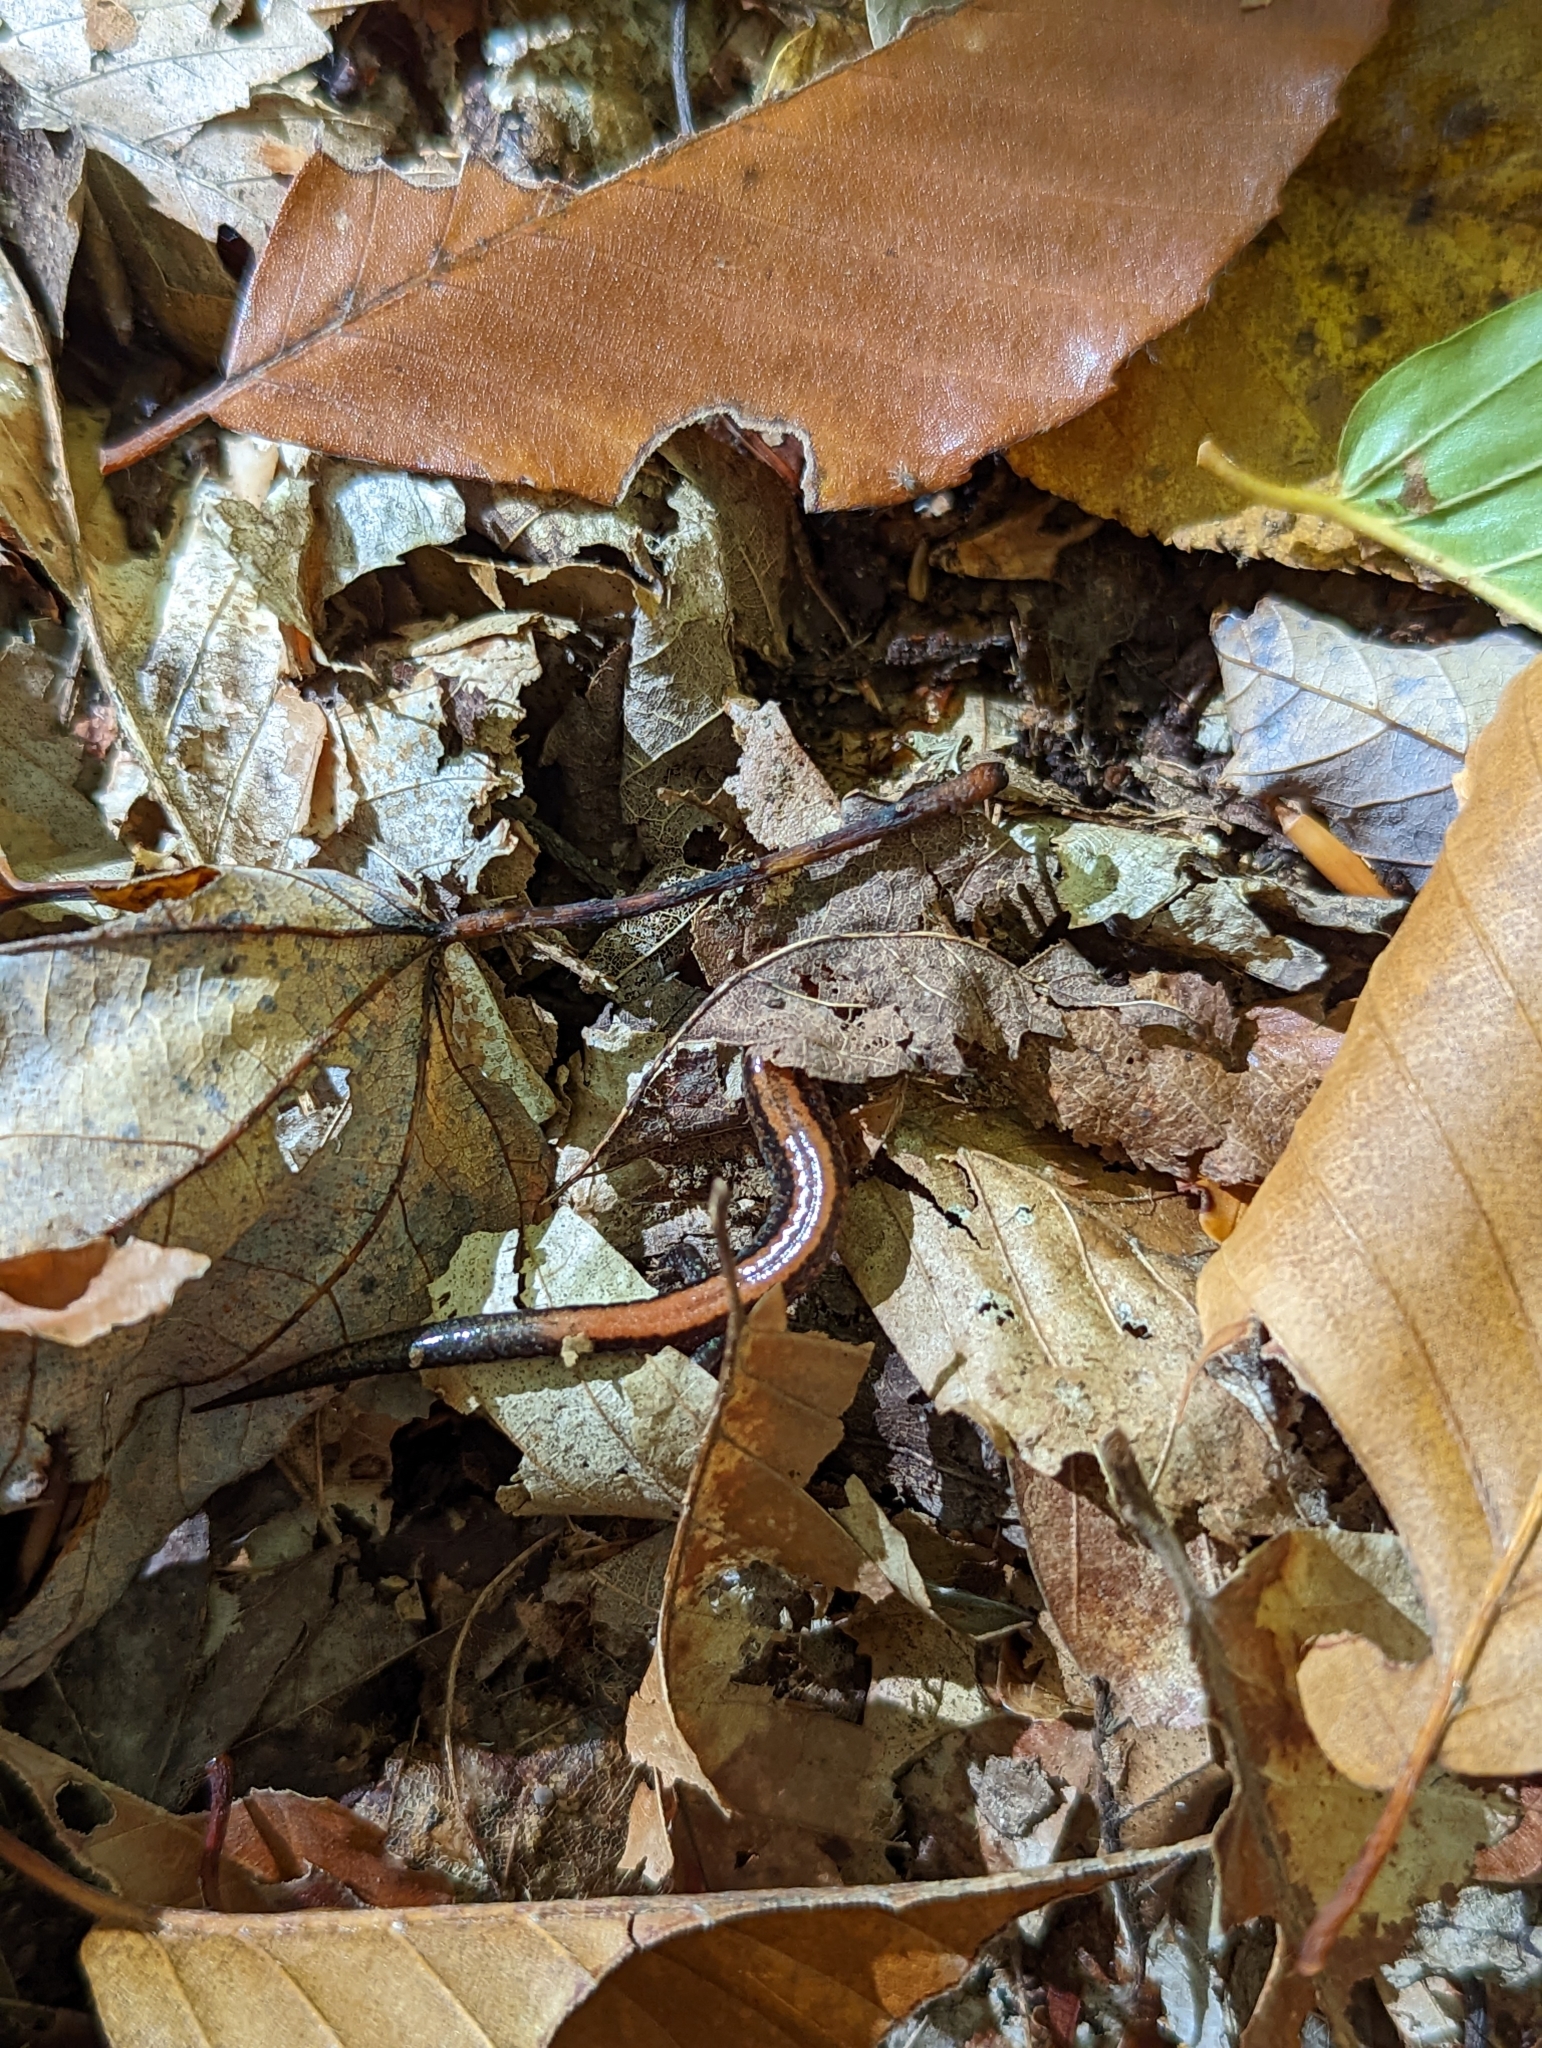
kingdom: Animalia
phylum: Chordata
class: Amphibia
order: Caudata
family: Plethodontidae
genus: Plethodon
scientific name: Plethodon cinereus
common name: Redback salamander
